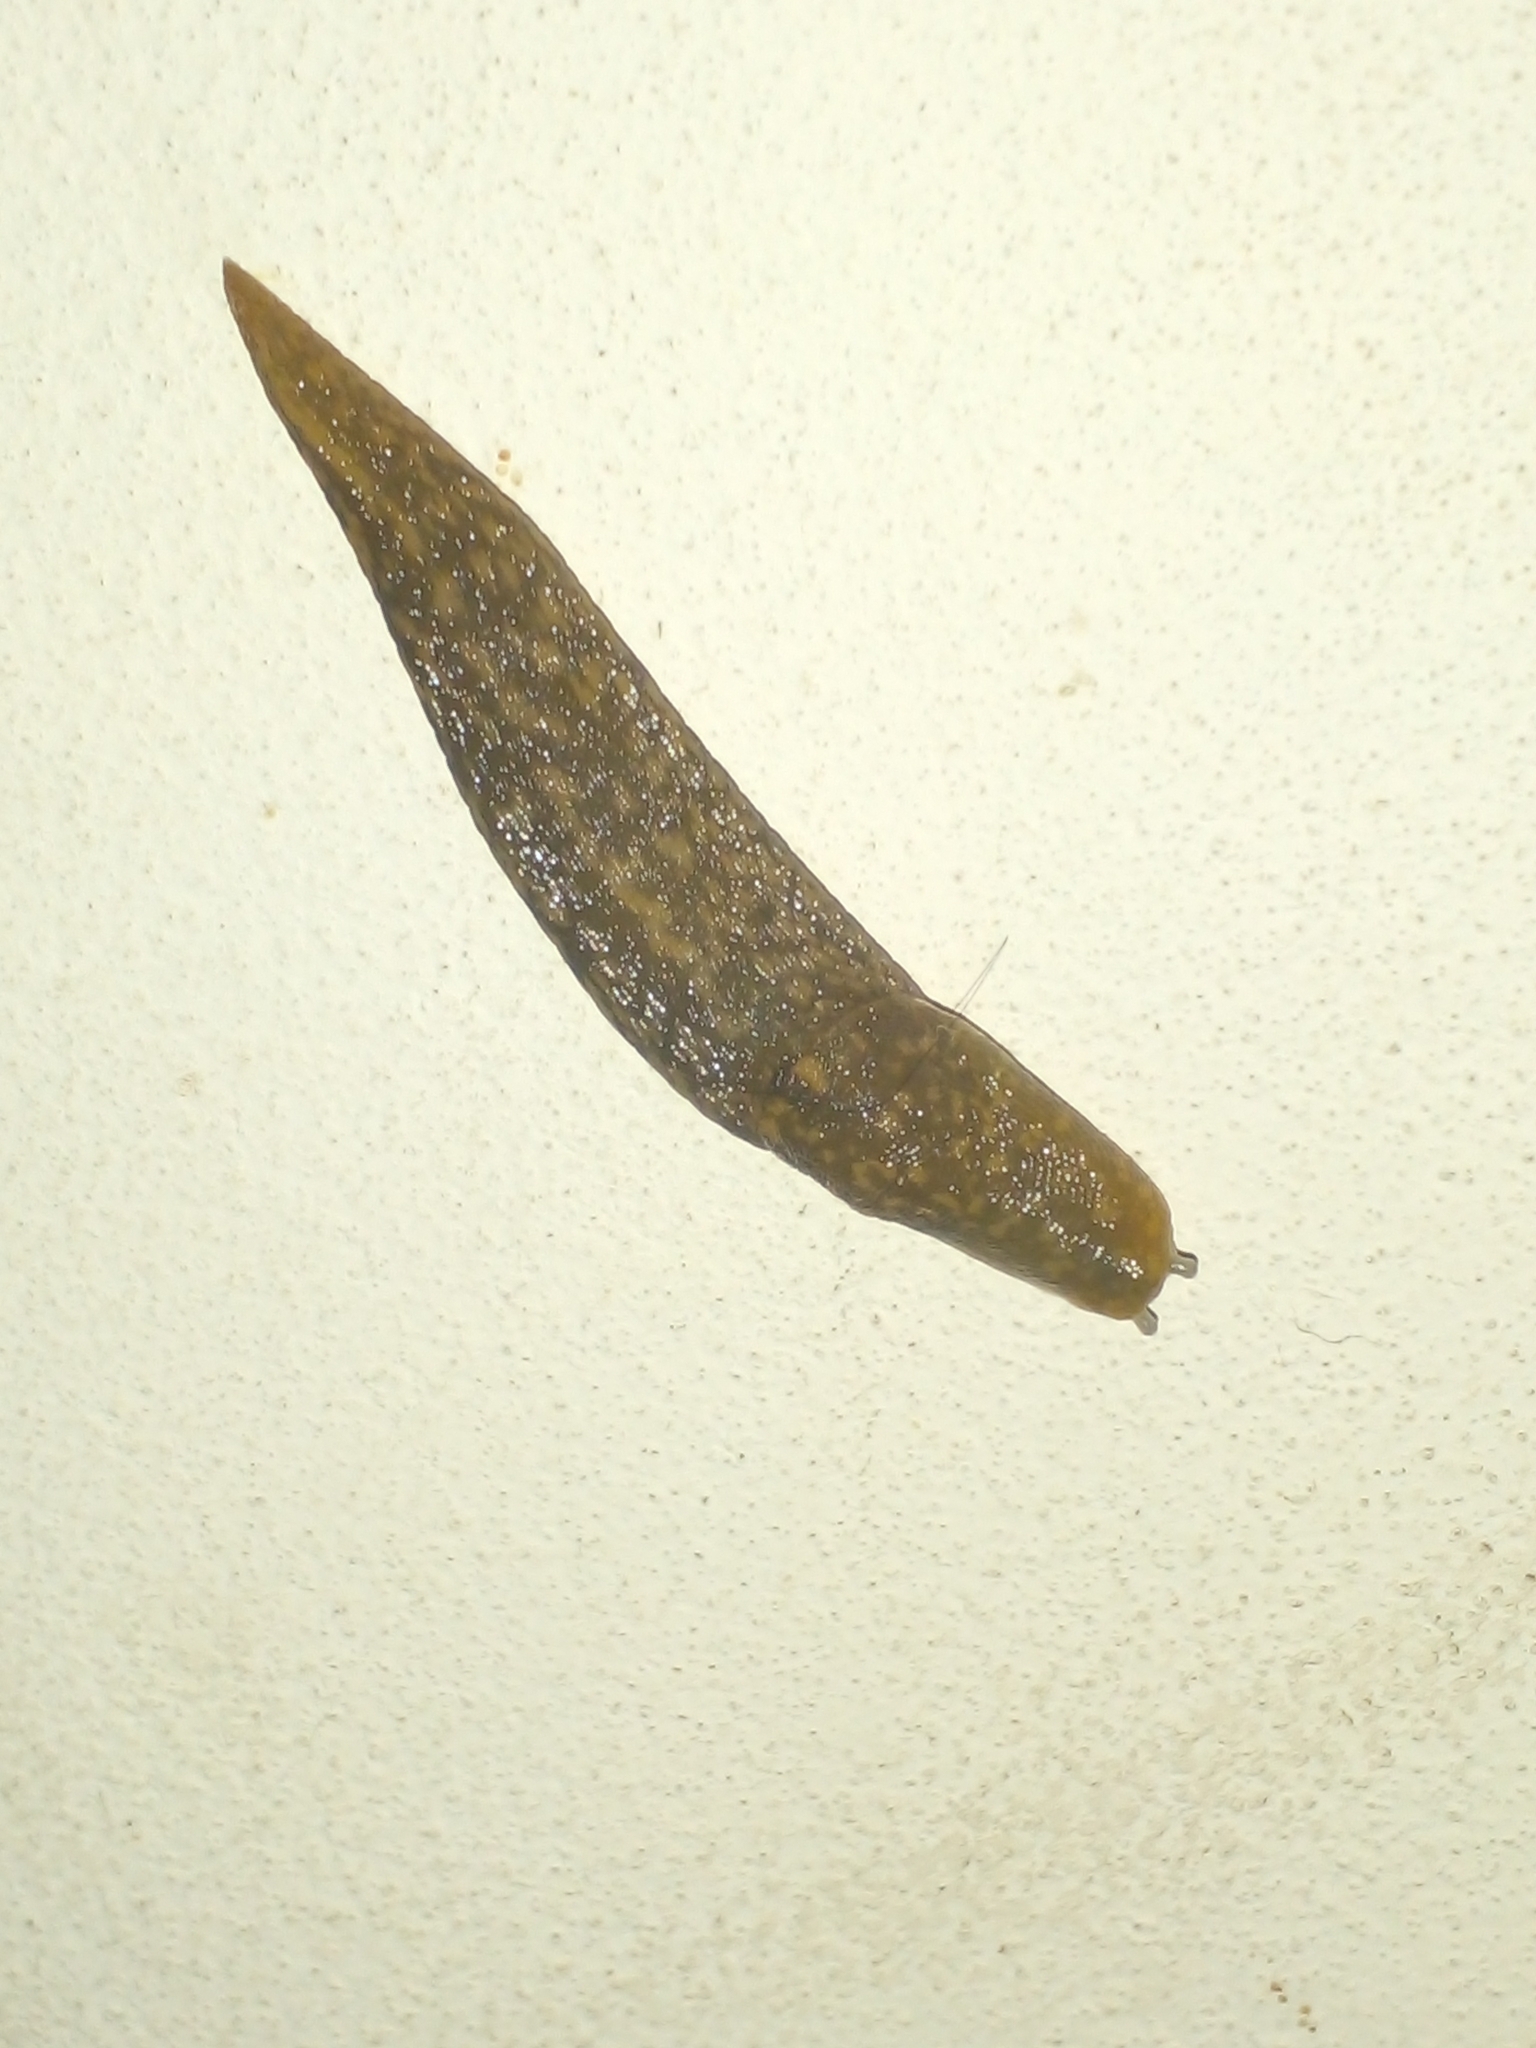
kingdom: Animalia
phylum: Mollusca
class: Gastropoda
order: Stylommatophora
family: Limacidae
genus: Limacus
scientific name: Limacus flavus
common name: Yellow gardenslug
